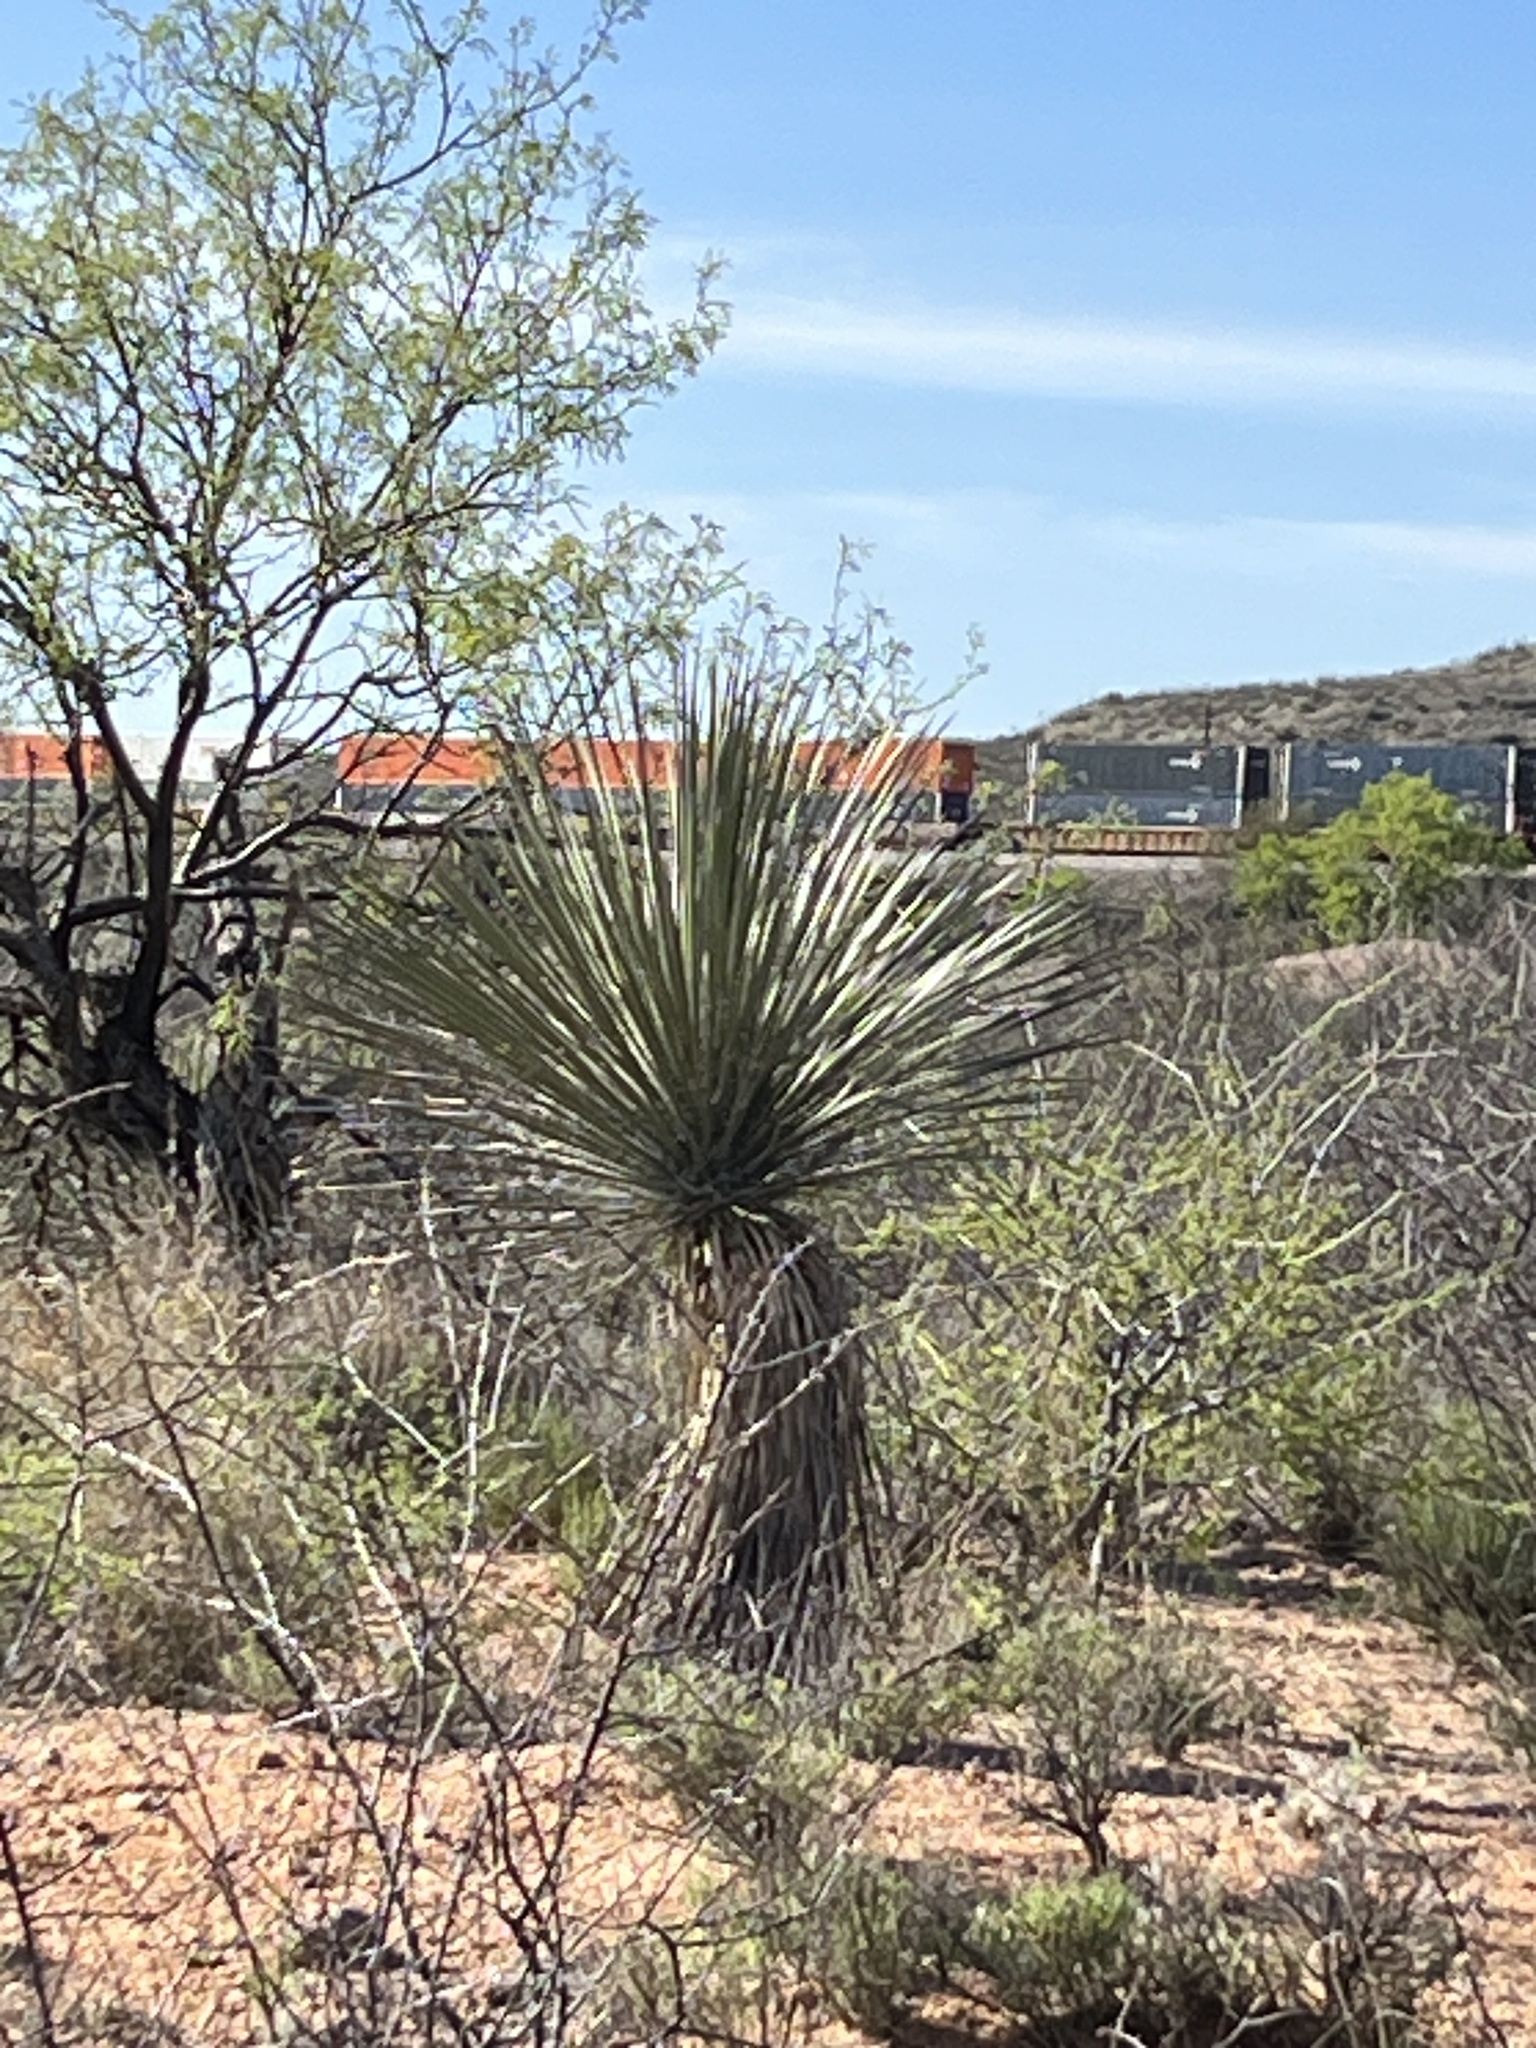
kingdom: Plantae
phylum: Tracheophyta
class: Liliopsida
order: Asparagales
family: Asparagaceae
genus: Yucca
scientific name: Yucca elata
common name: Palmella
